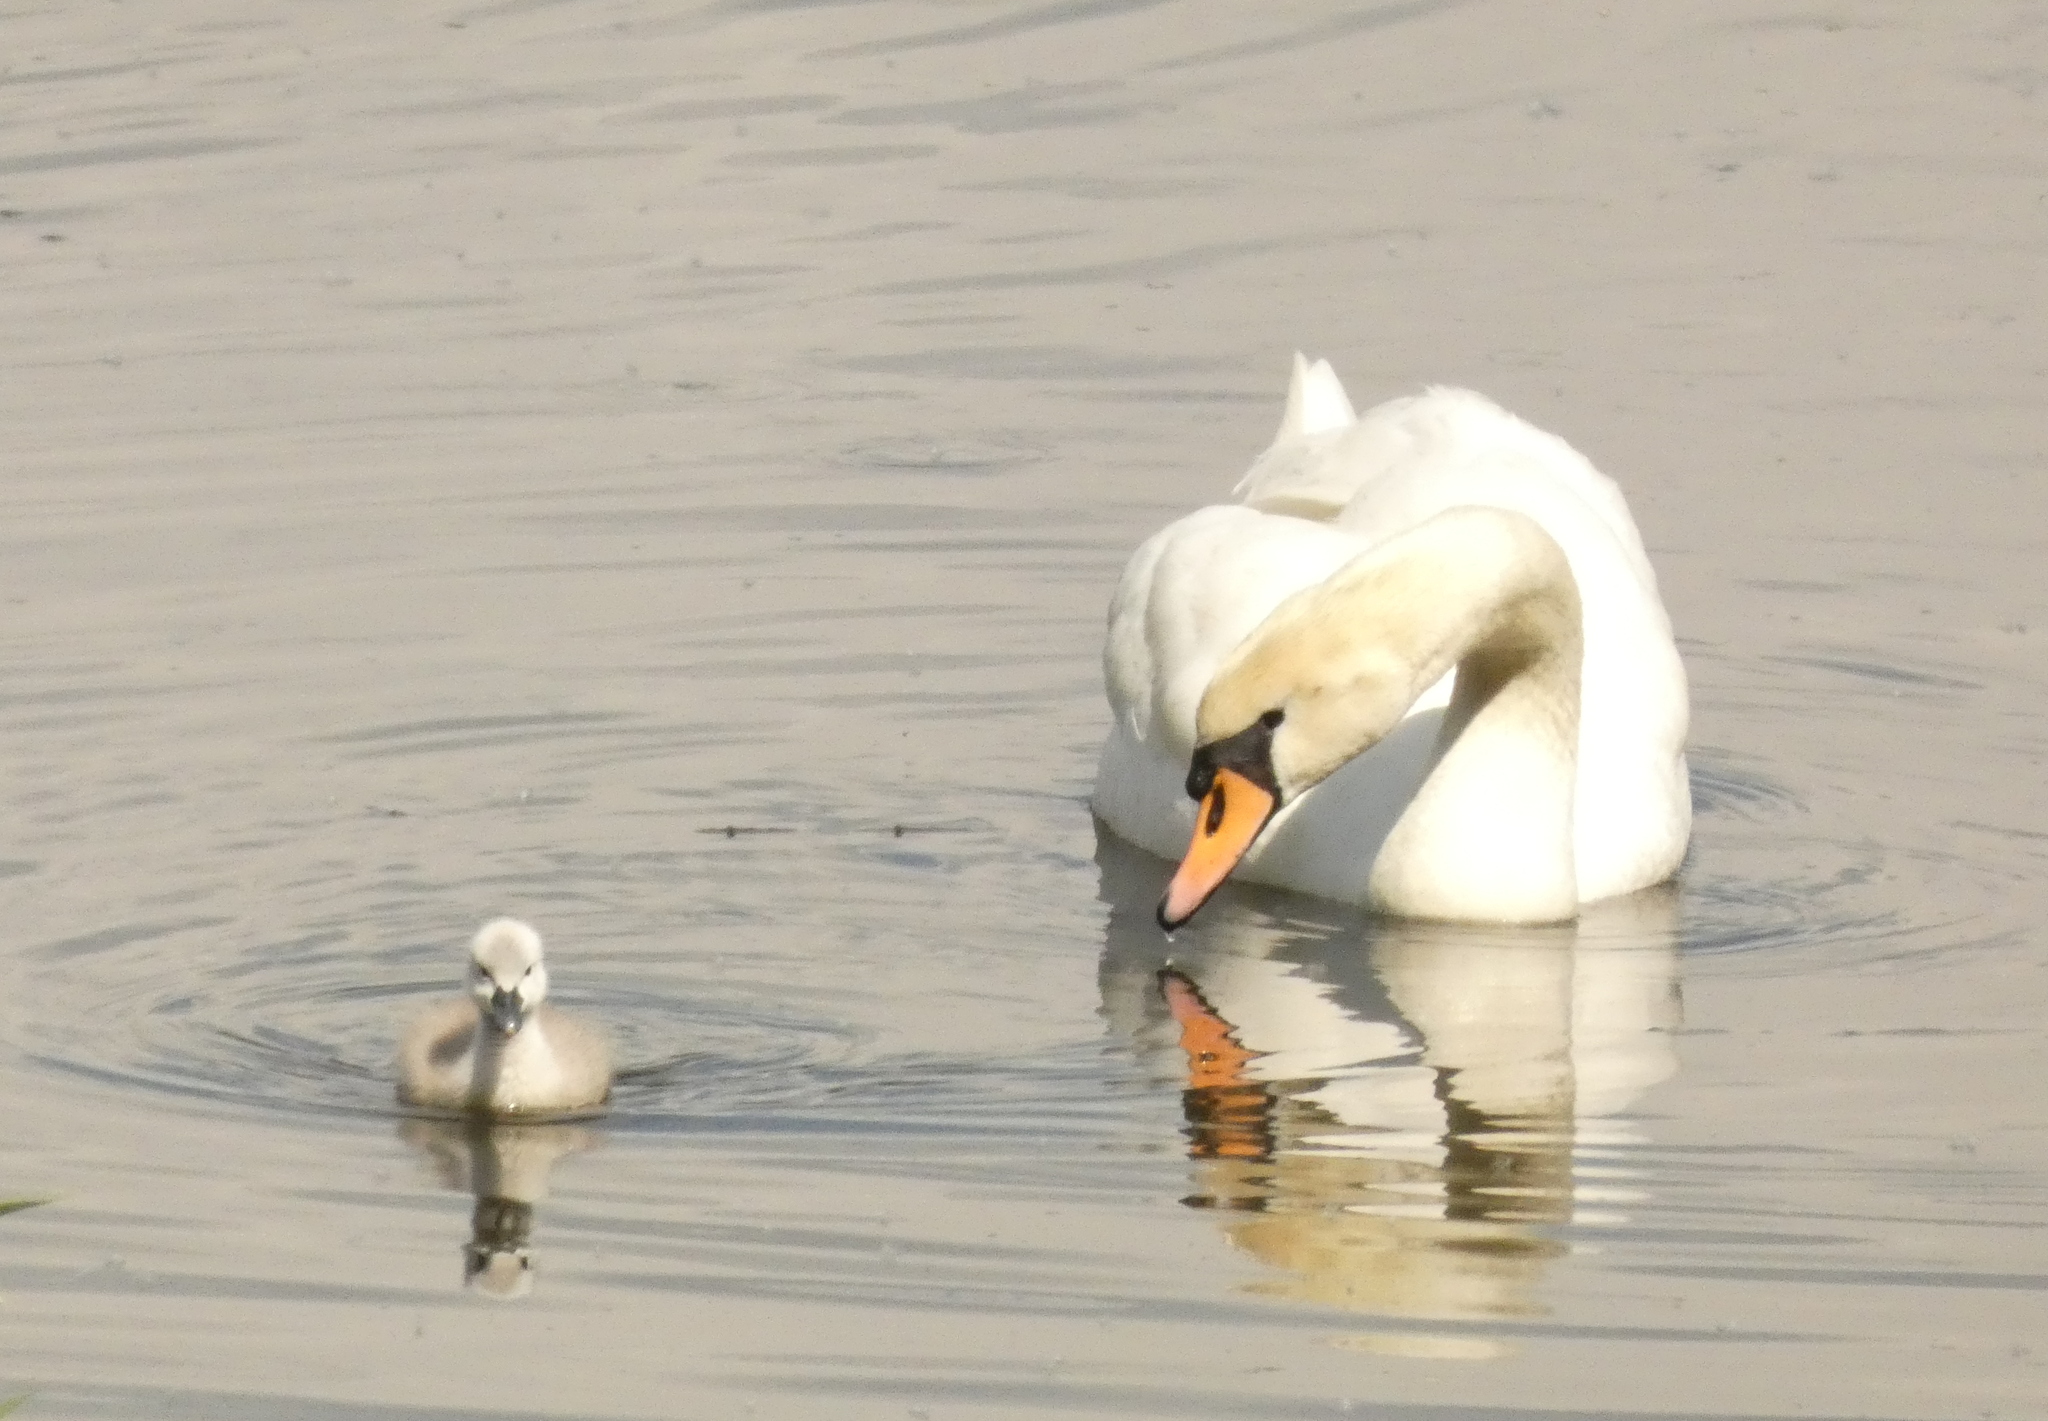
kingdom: Animalia
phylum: Chordata
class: Aves
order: Anseriformes
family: Anatidae
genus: Cygnus
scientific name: Cygnus olor
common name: Mute swan
